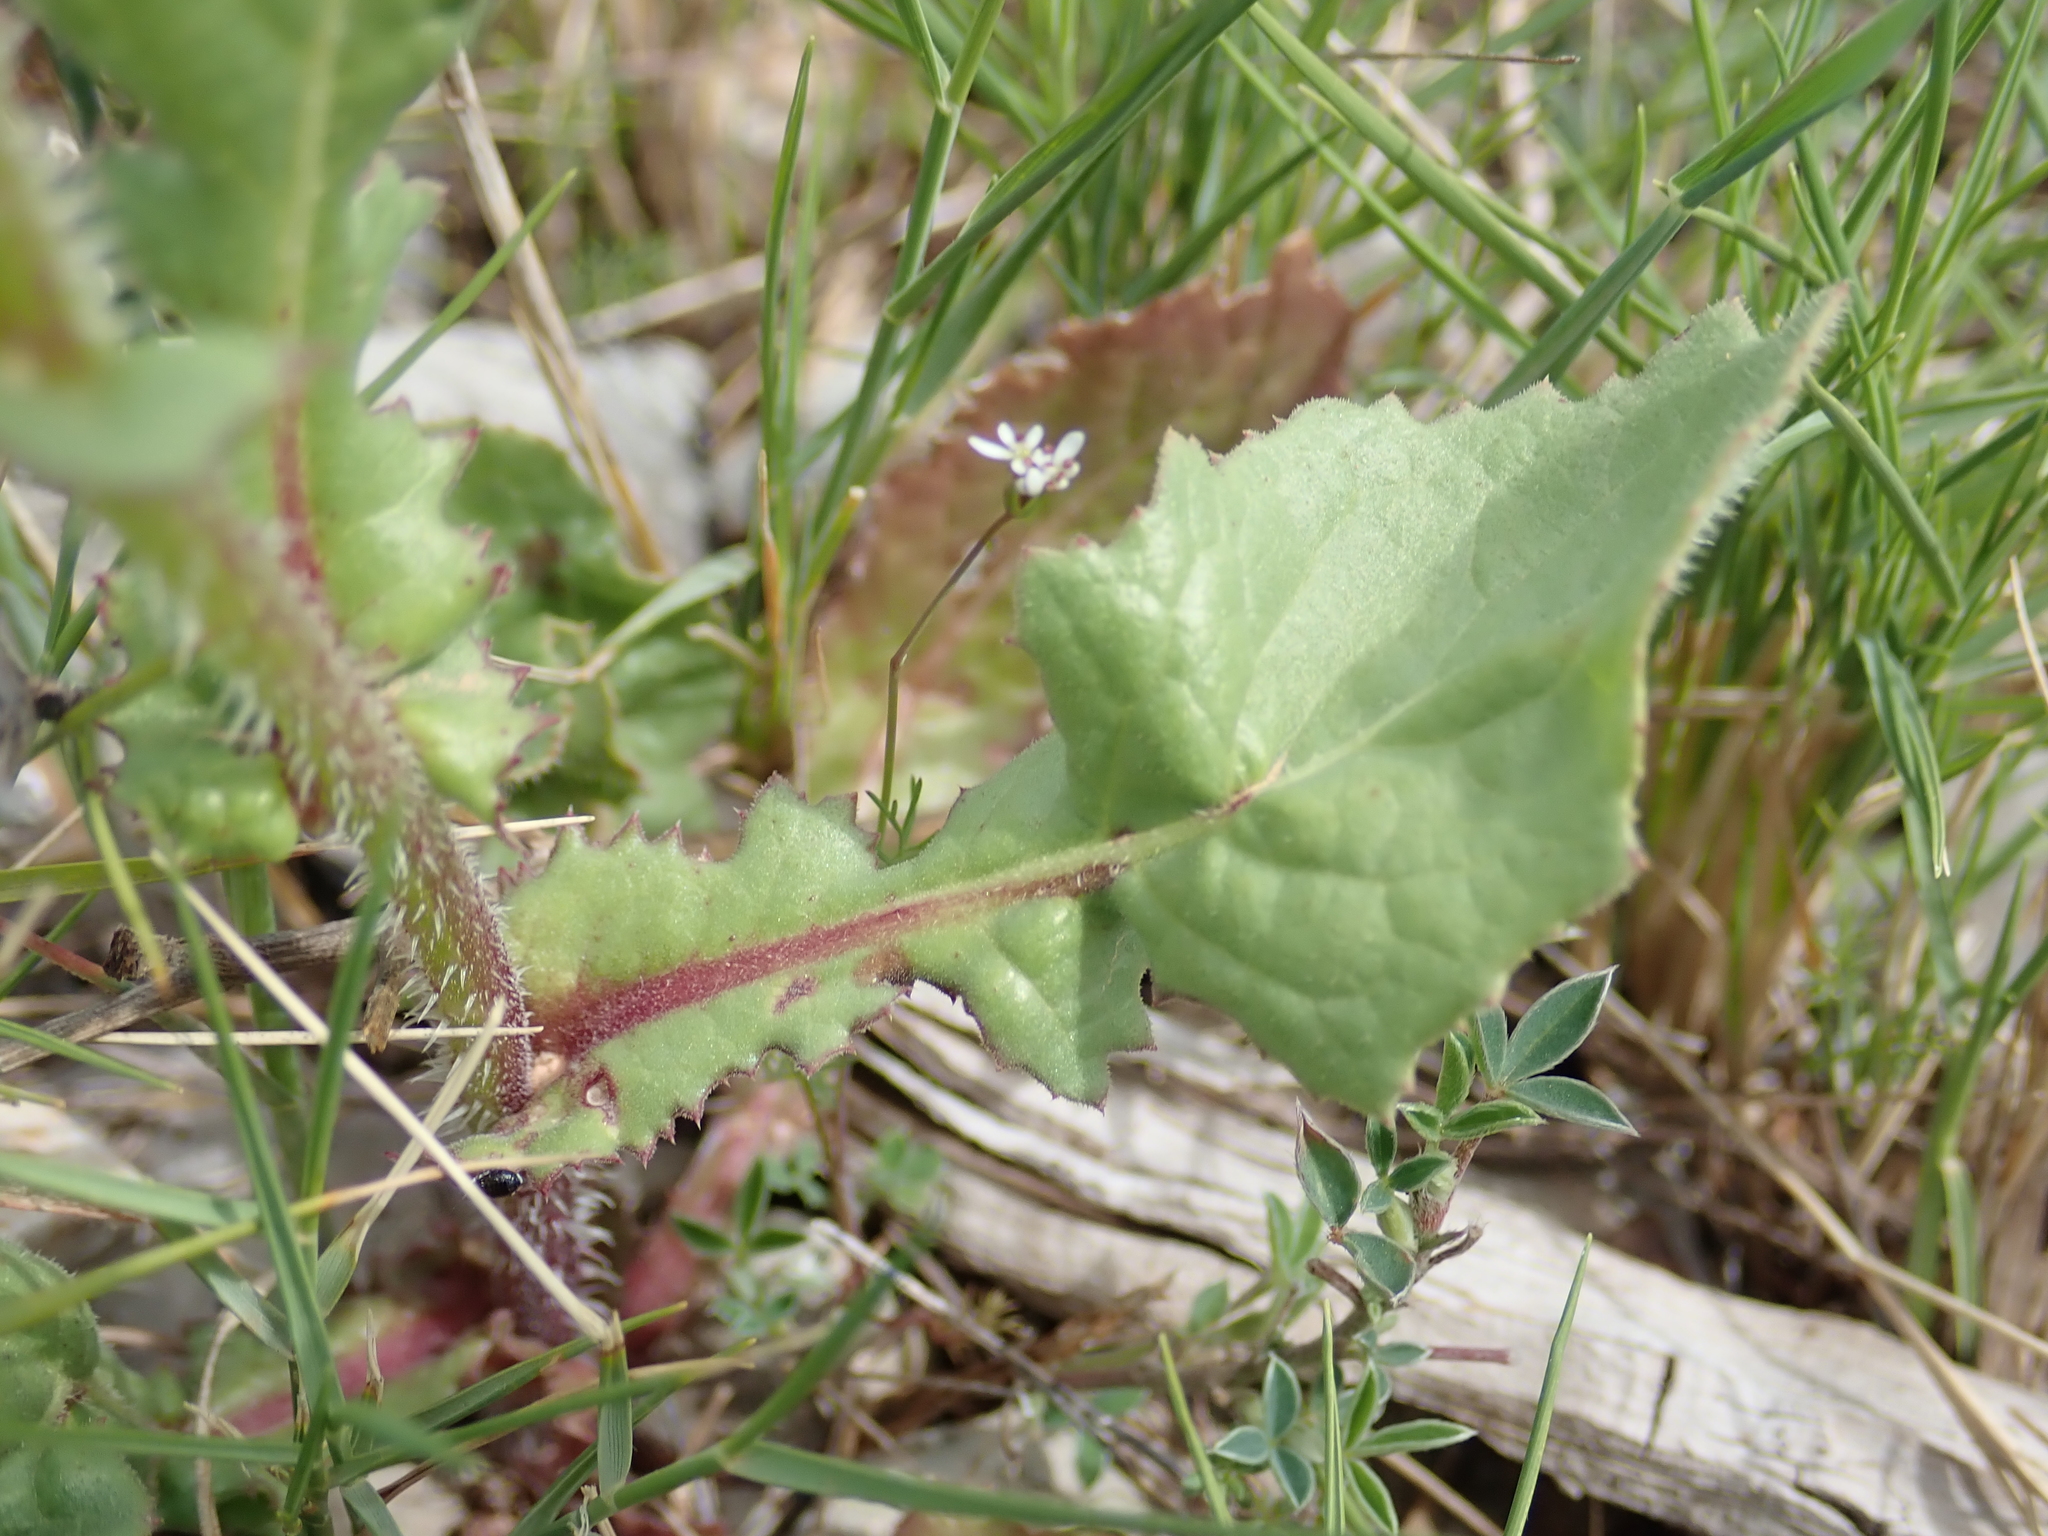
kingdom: Plantae
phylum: Tracheophyta
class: Magnoliopsida
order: Asterales
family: Asteraceae
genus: Urospermum
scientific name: Urospermum picroides
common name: False hawkbit
